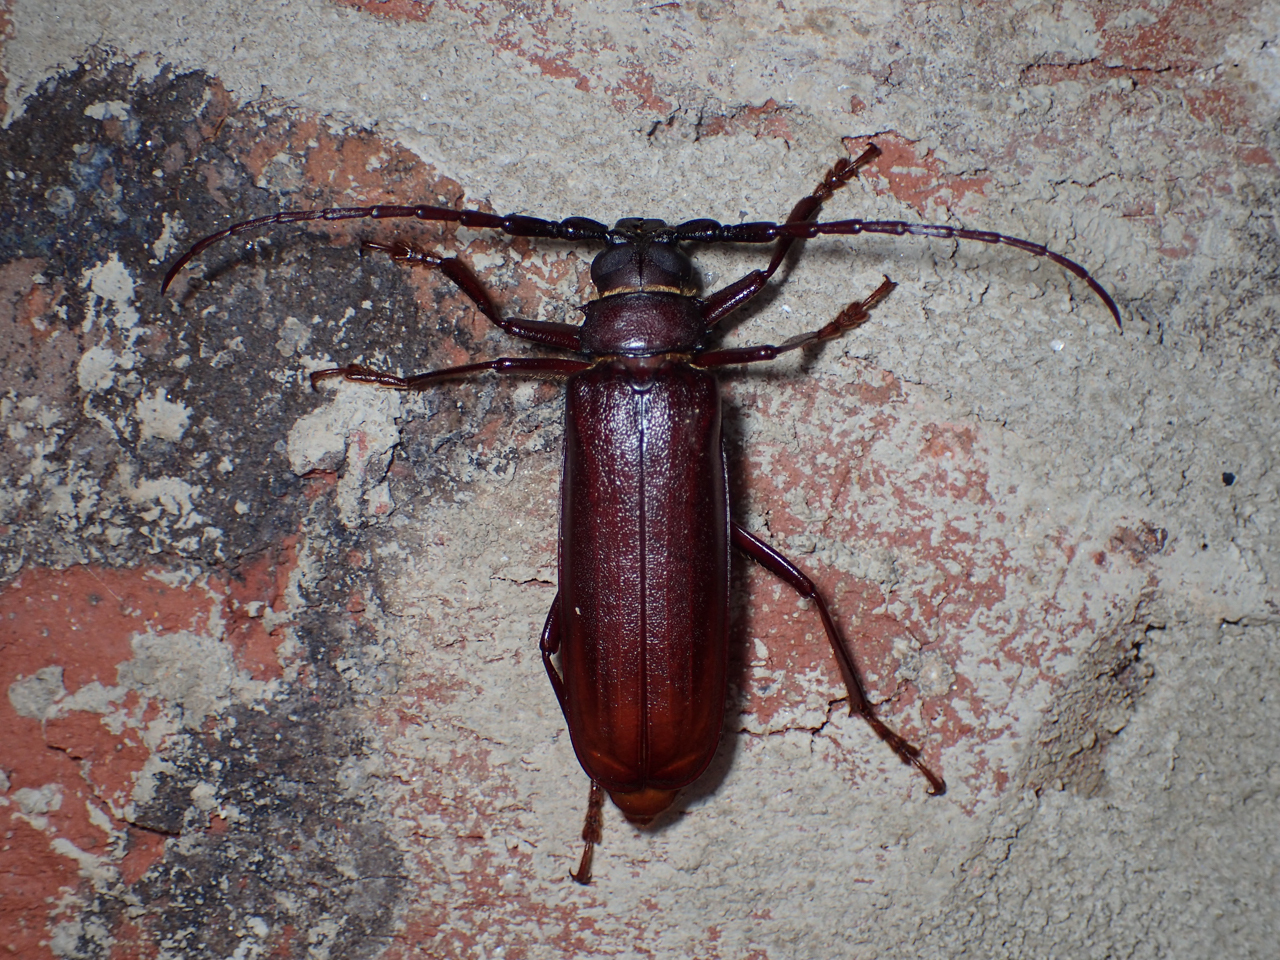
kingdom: Animalia
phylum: Arthropoda
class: Insecta
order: Coleoptera
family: Cerambycidae
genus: Orthosoma
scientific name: Orthosoma brunneum
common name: Brown prionid beetle
